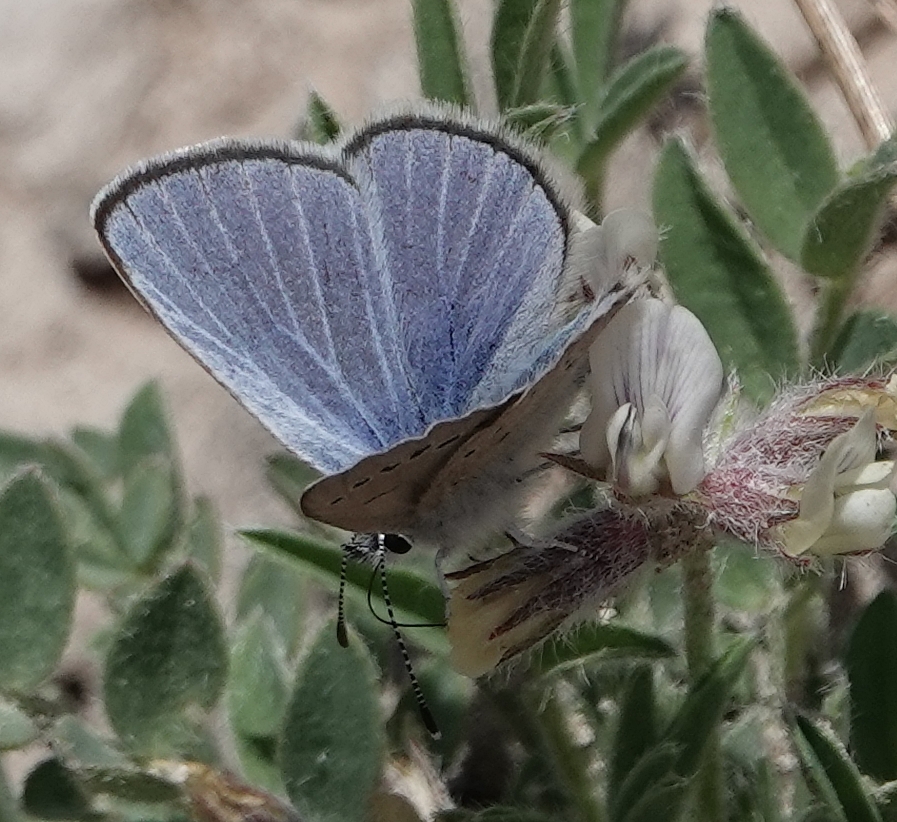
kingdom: Animalia
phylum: Arthropoda
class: Insecta
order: Lepidoptera
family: Lycaenidae
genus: Glaucopsyche
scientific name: Glaucopsyche lygdamus
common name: Silvery blue
